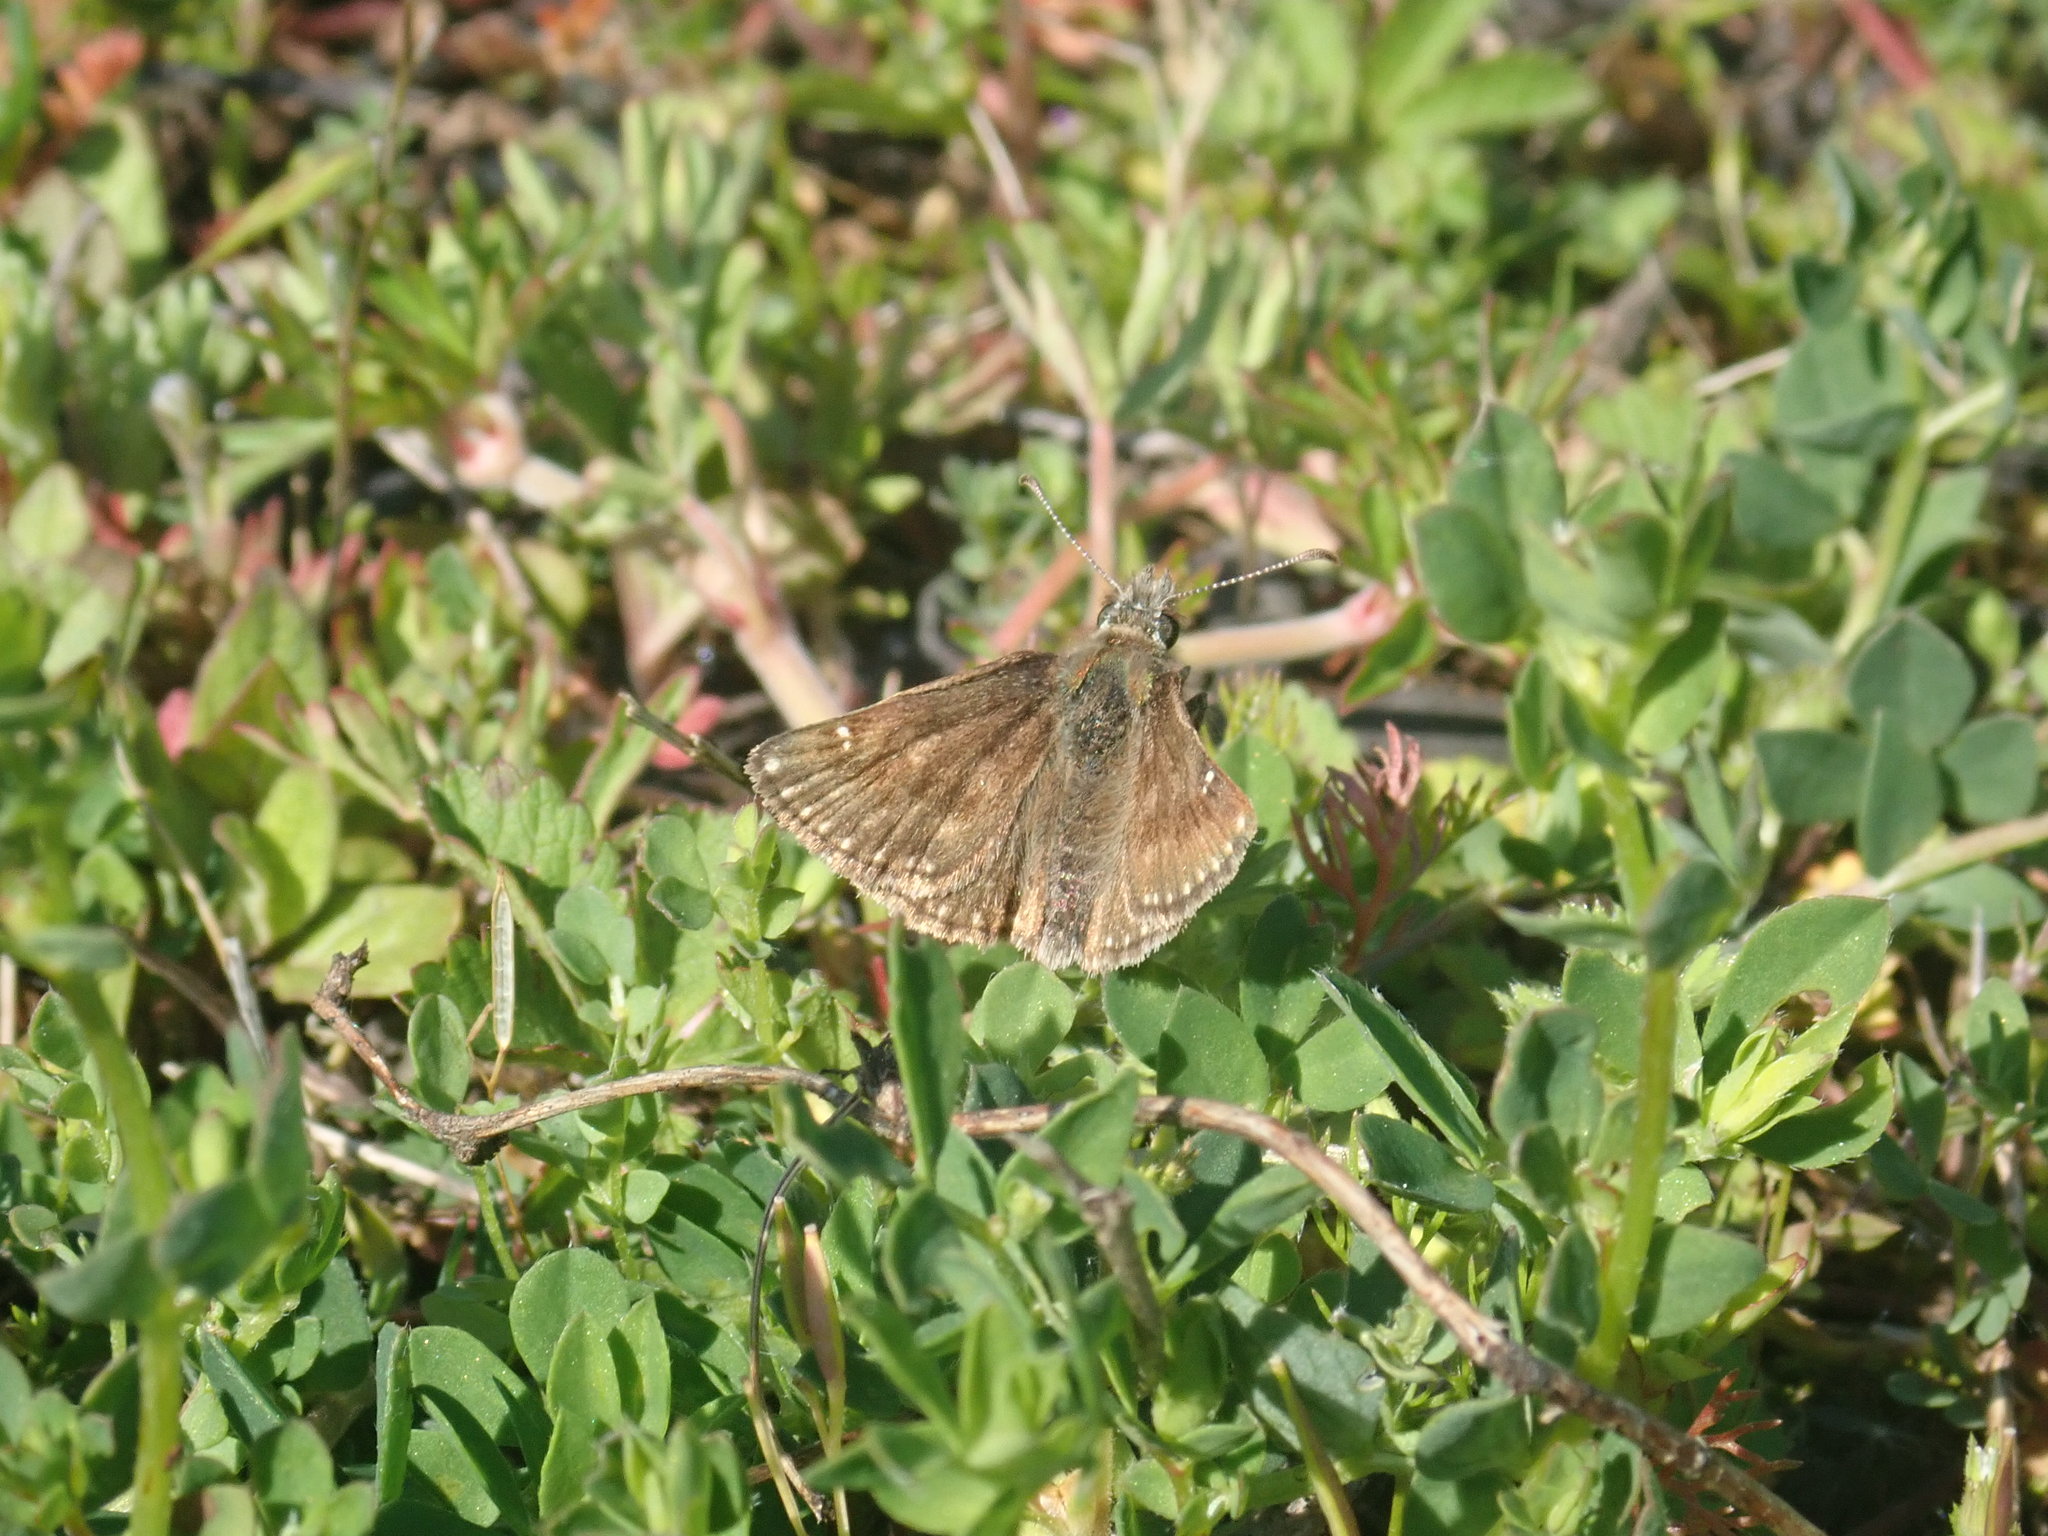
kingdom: Animalia
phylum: Arthropoda
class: Insecta
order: Lepidoptera
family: Hesperiidae
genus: Erynnis
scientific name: Erynnis tages
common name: Dingy skipper
